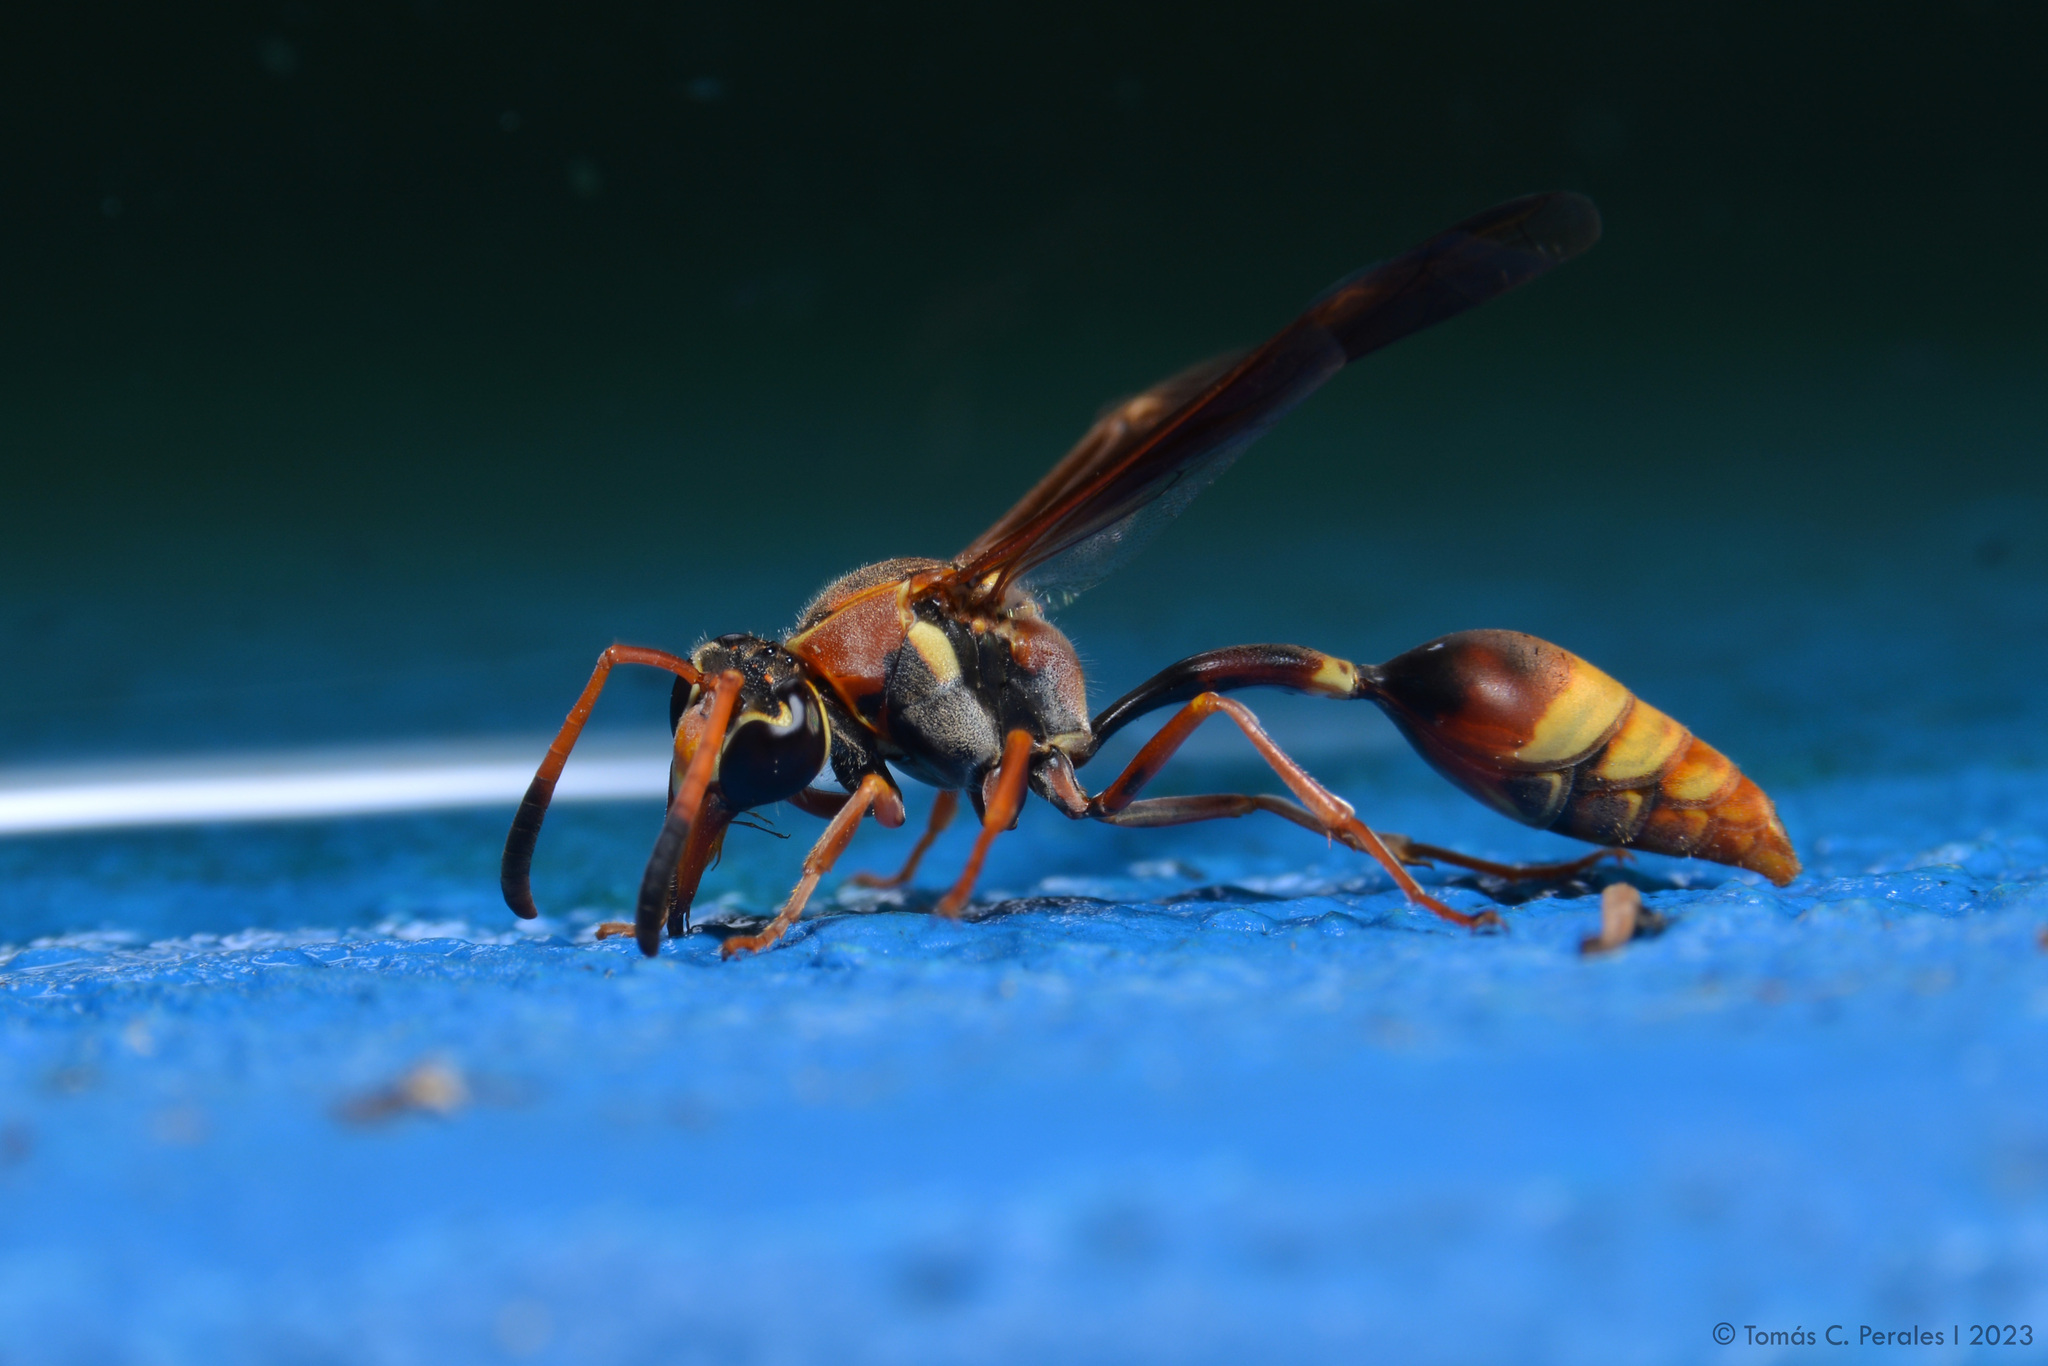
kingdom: Animalia
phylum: Arthropoda
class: Insecta
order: Hymenoptera
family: Eumenidae
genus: Zeta
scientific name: Zeta argillaceum
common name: Potter wasp
